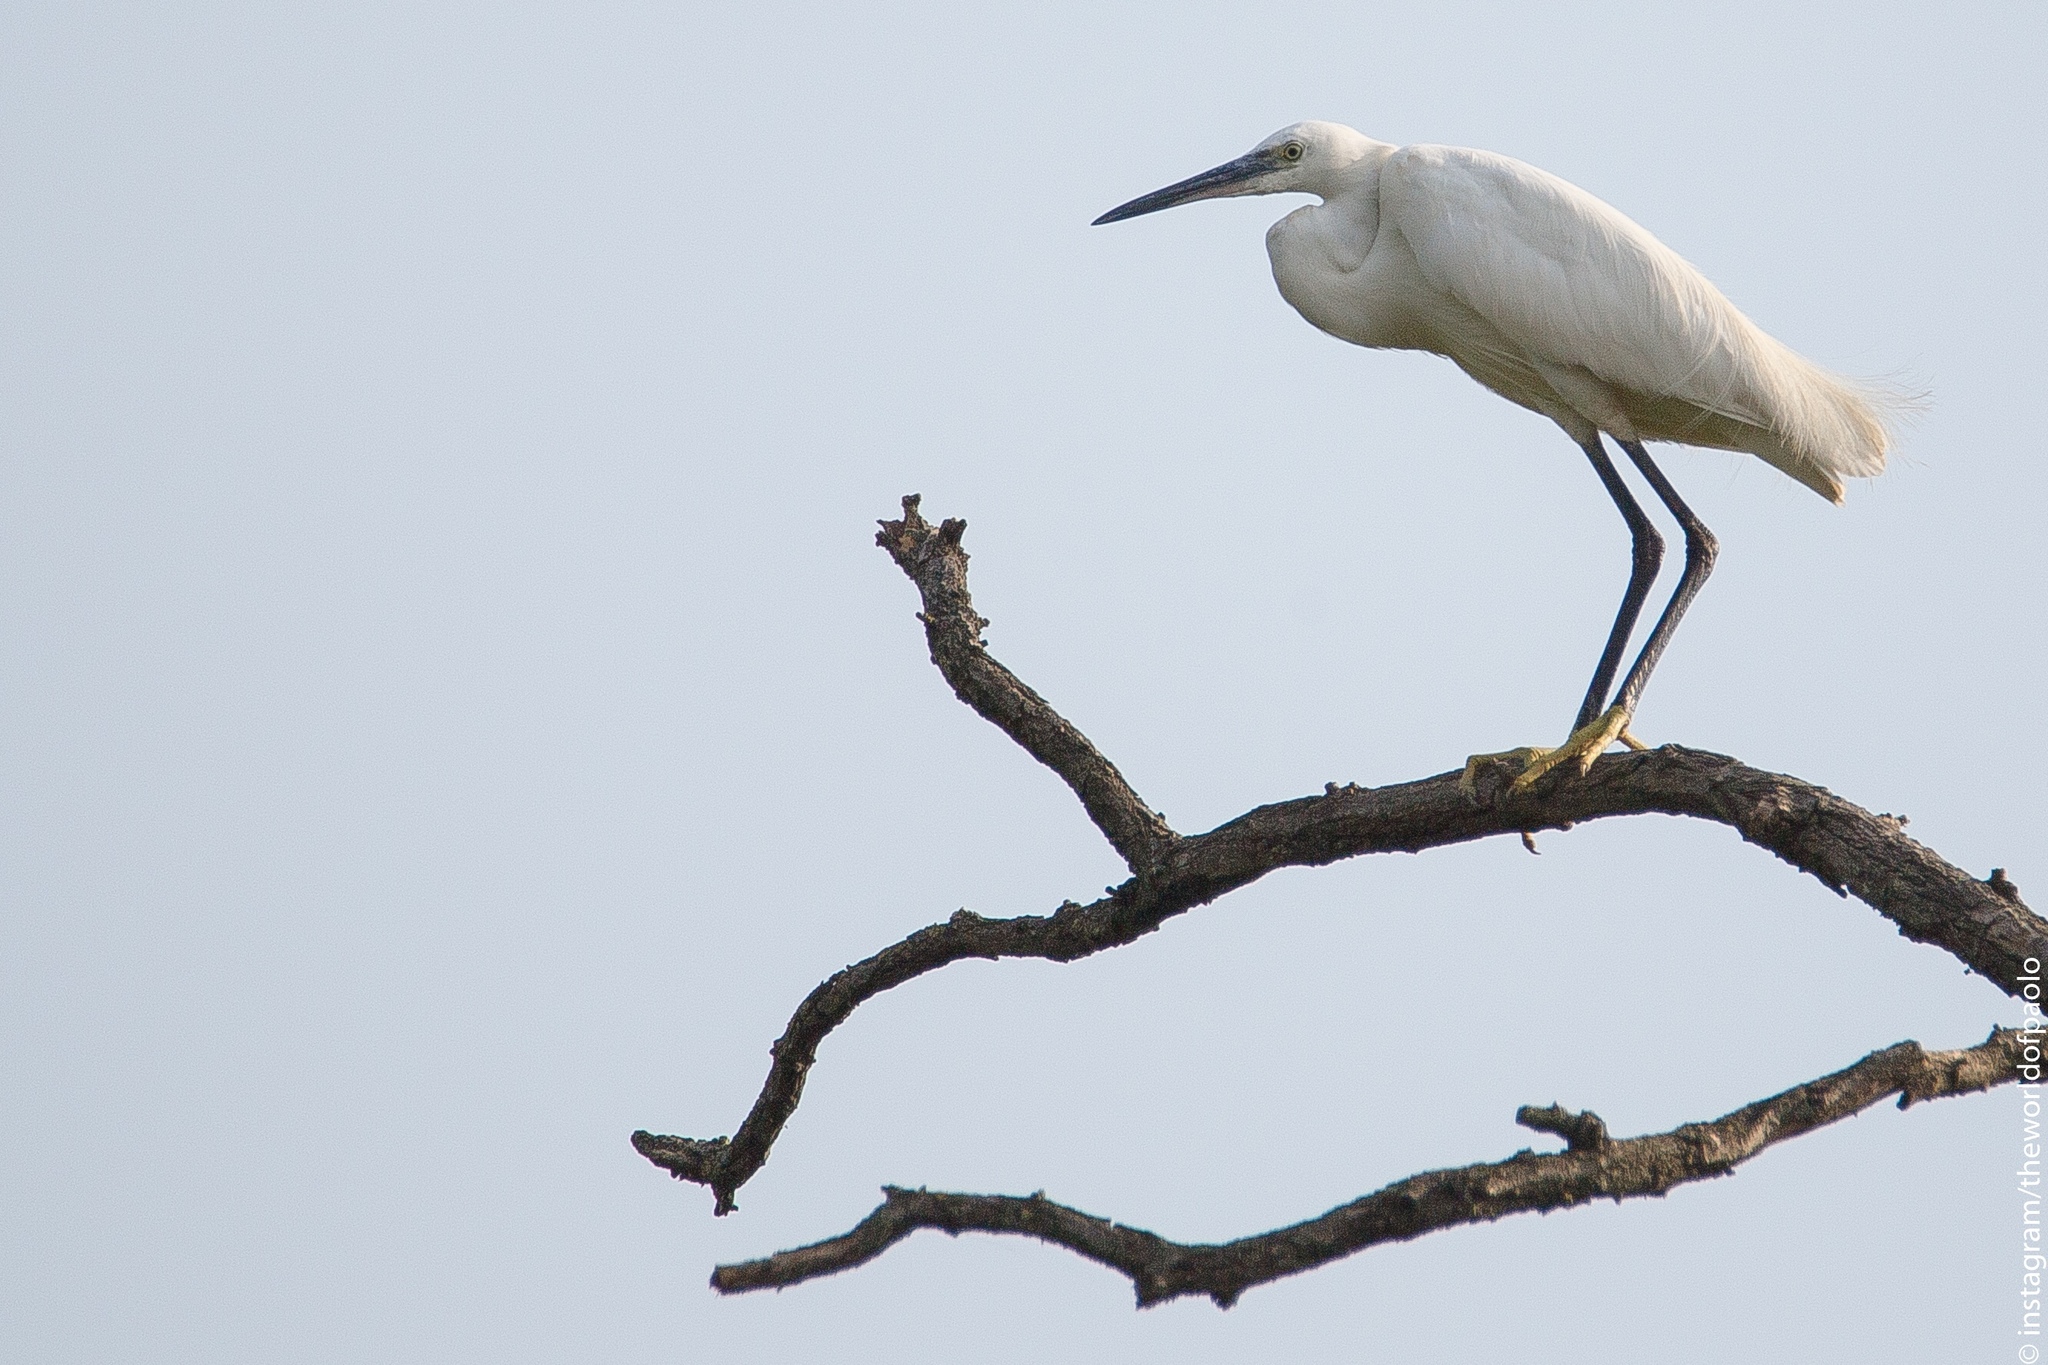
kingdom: Animalia
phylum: Chordata
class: Aves
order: Pelecaniformes
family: Ardeidae
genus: Egretta
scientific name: Egretta garzetta
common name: Little egret
